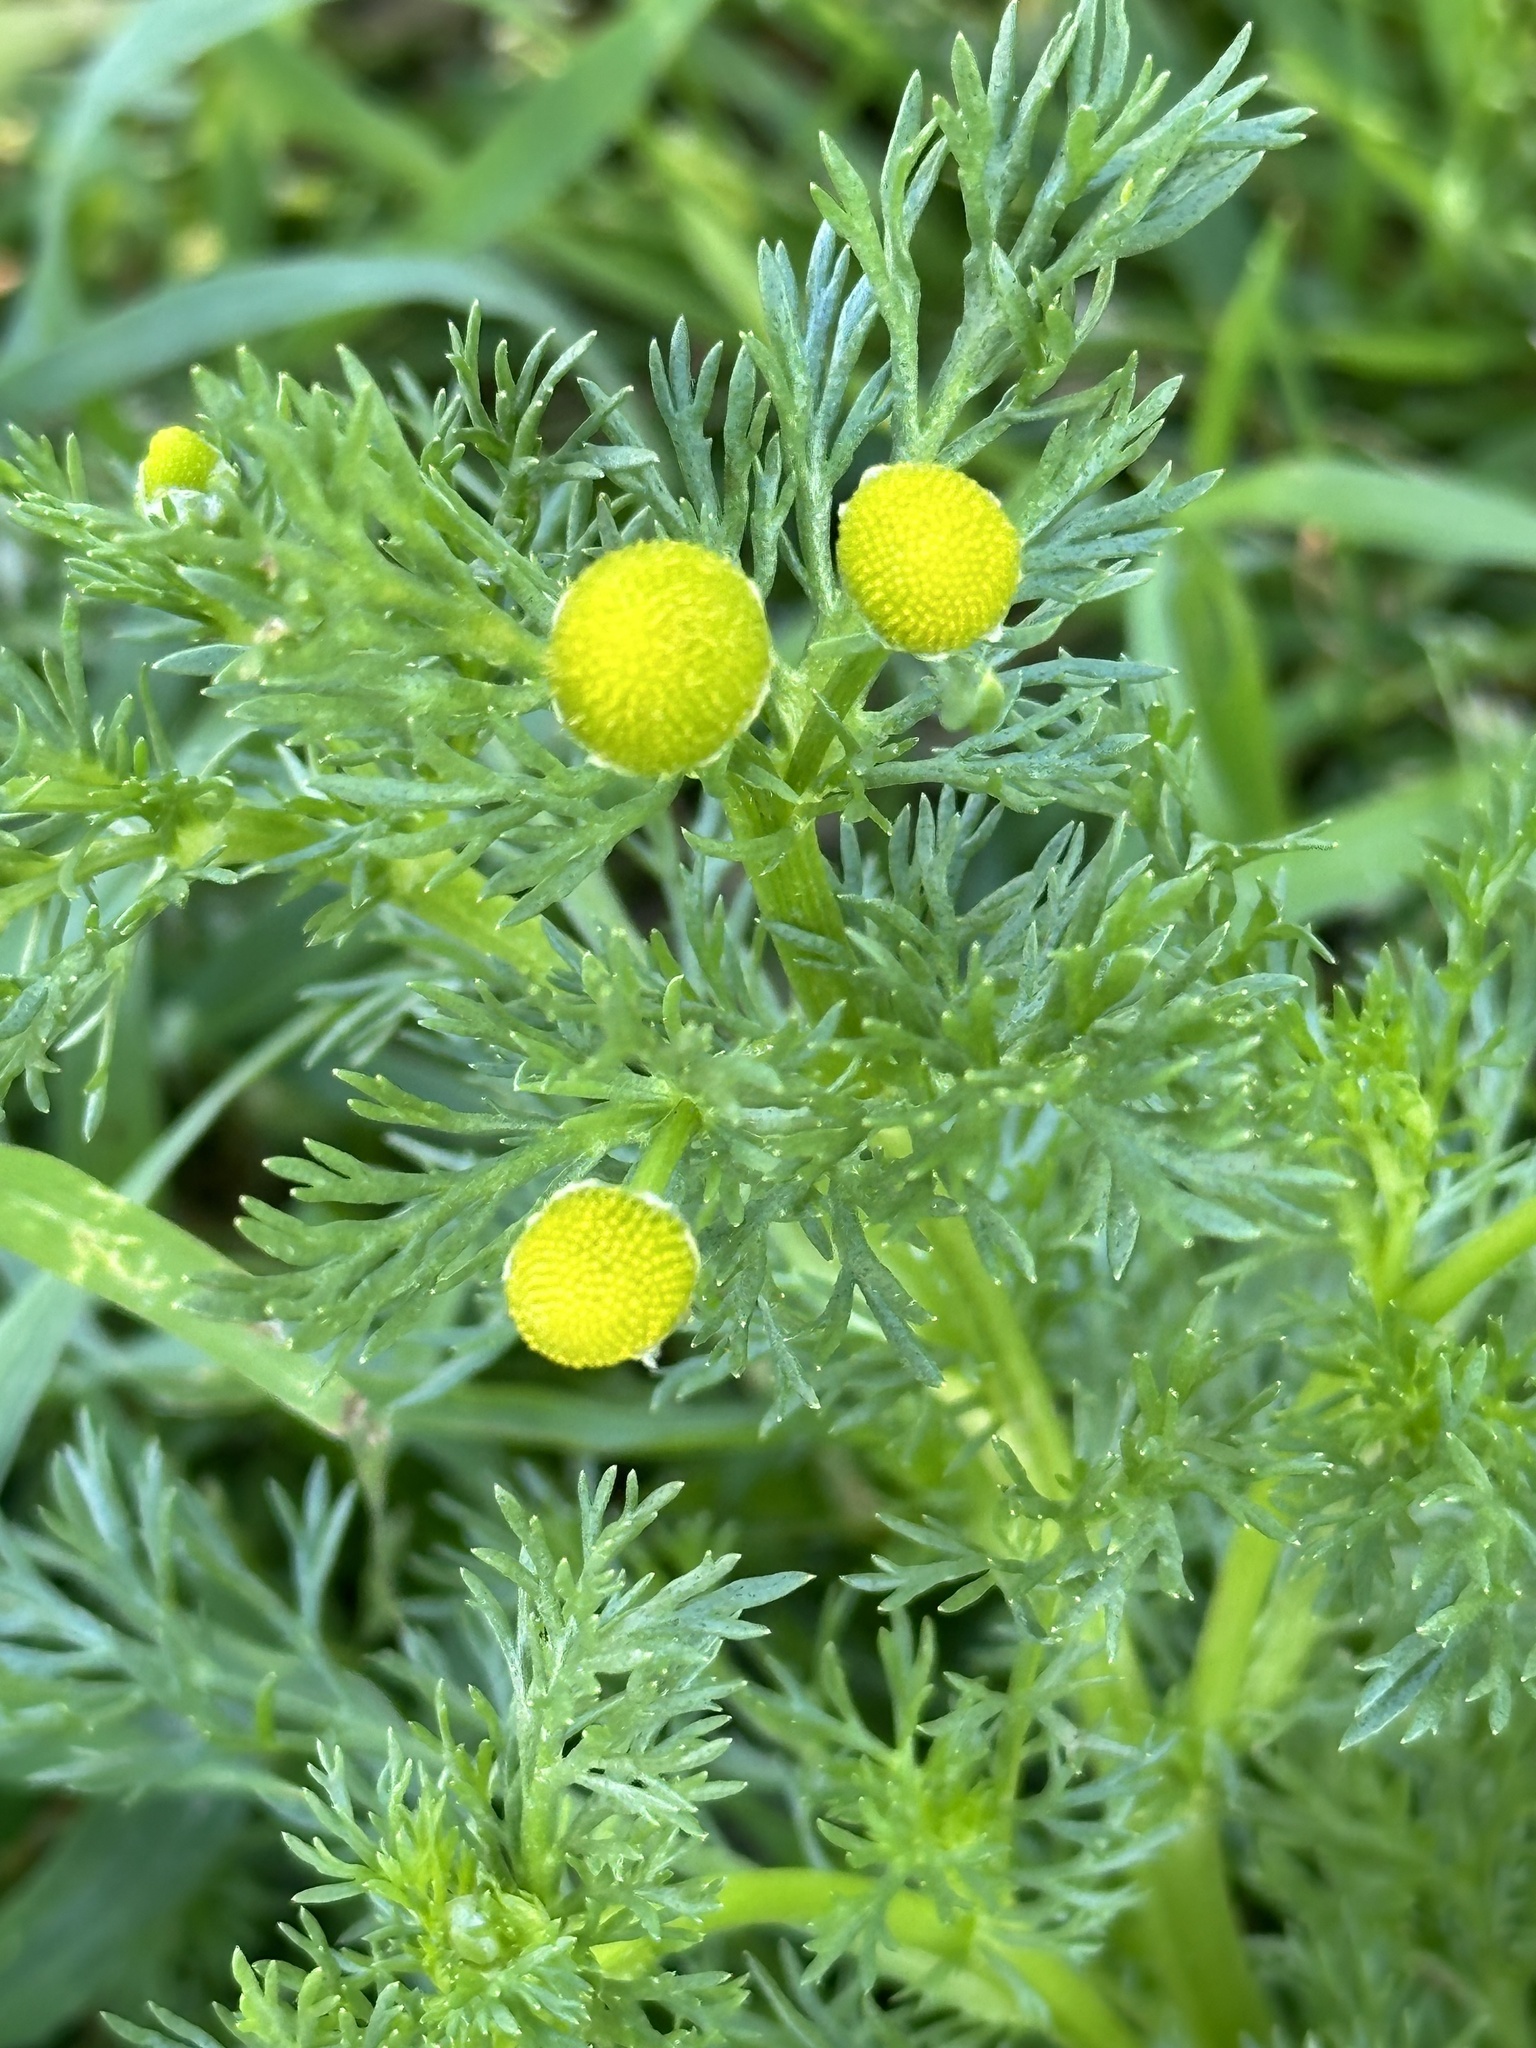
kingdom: Plantae
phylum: Tracheophyta
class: Magnoliopsida
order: Asterales
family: Asteraceae
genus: Matricaria
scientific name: Matricaria discoidea
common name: Disc mayweed
